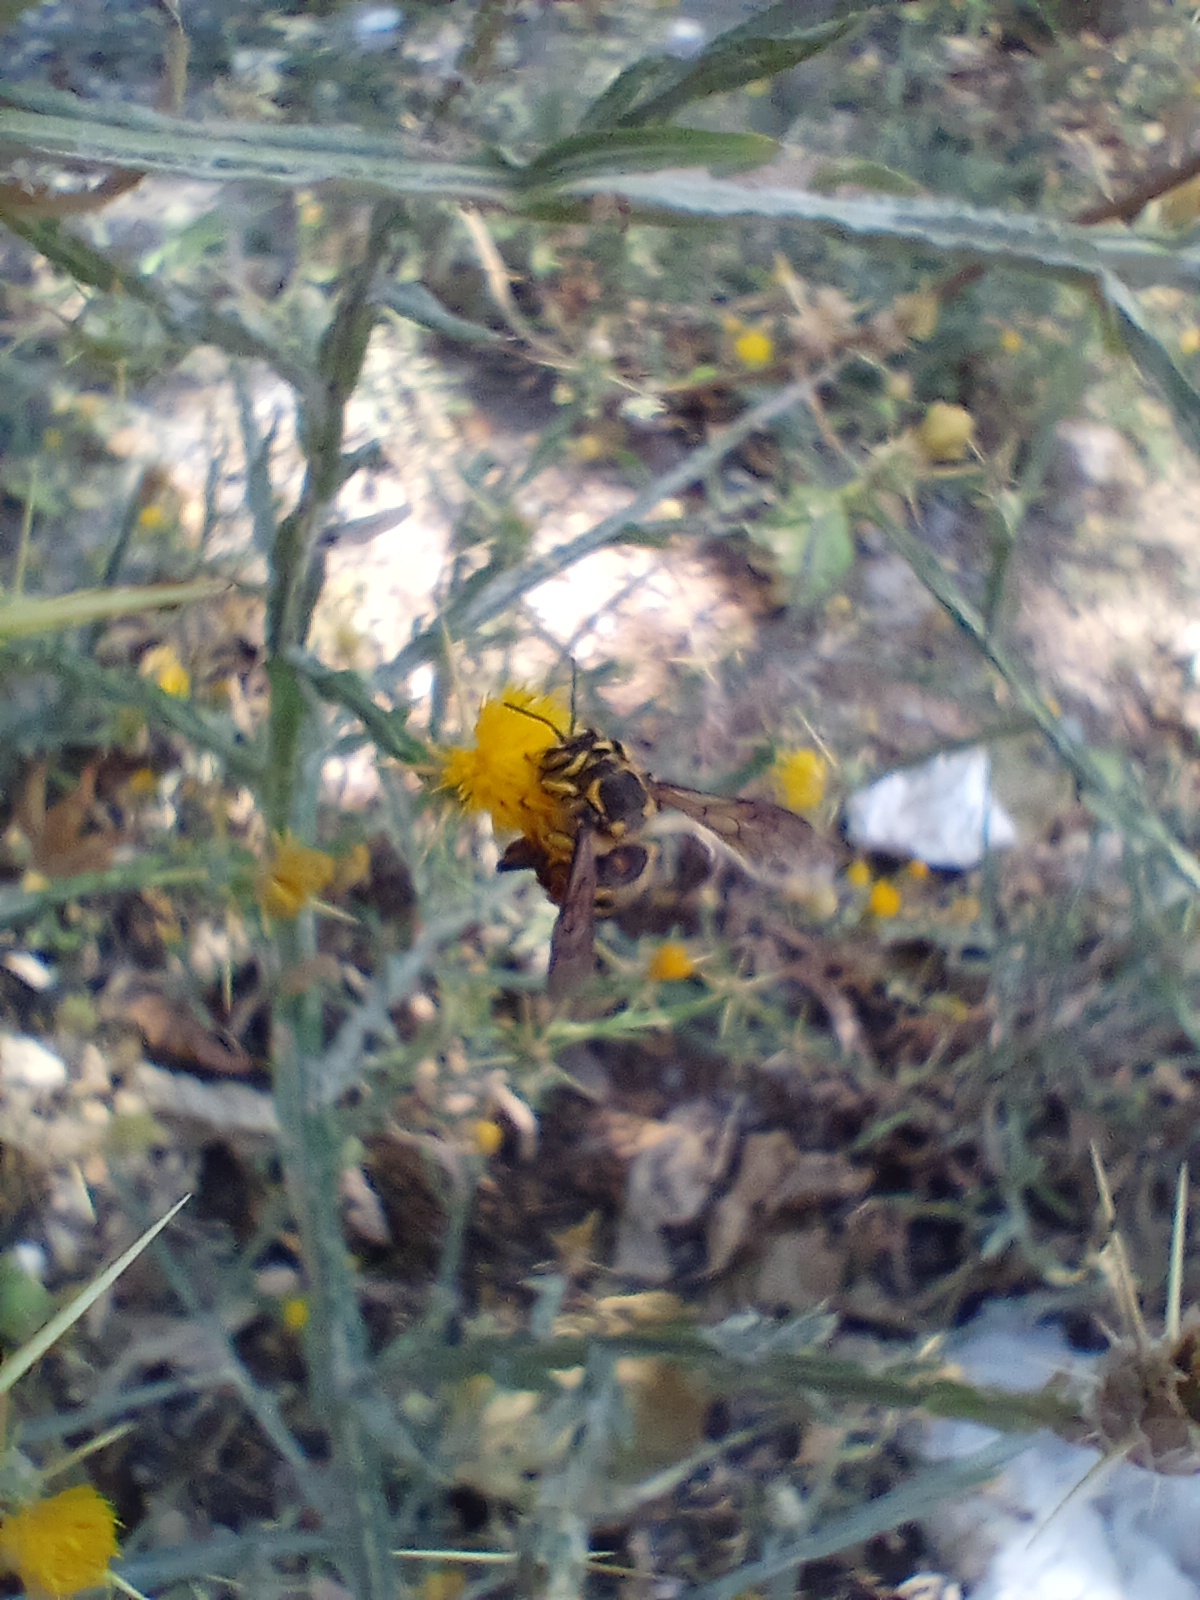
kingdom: Animalia
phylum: Arthropoda
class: Insecta
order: Hymenoptera
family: Megachilidae
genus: Anthidium
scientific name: Anthidium florentinum
